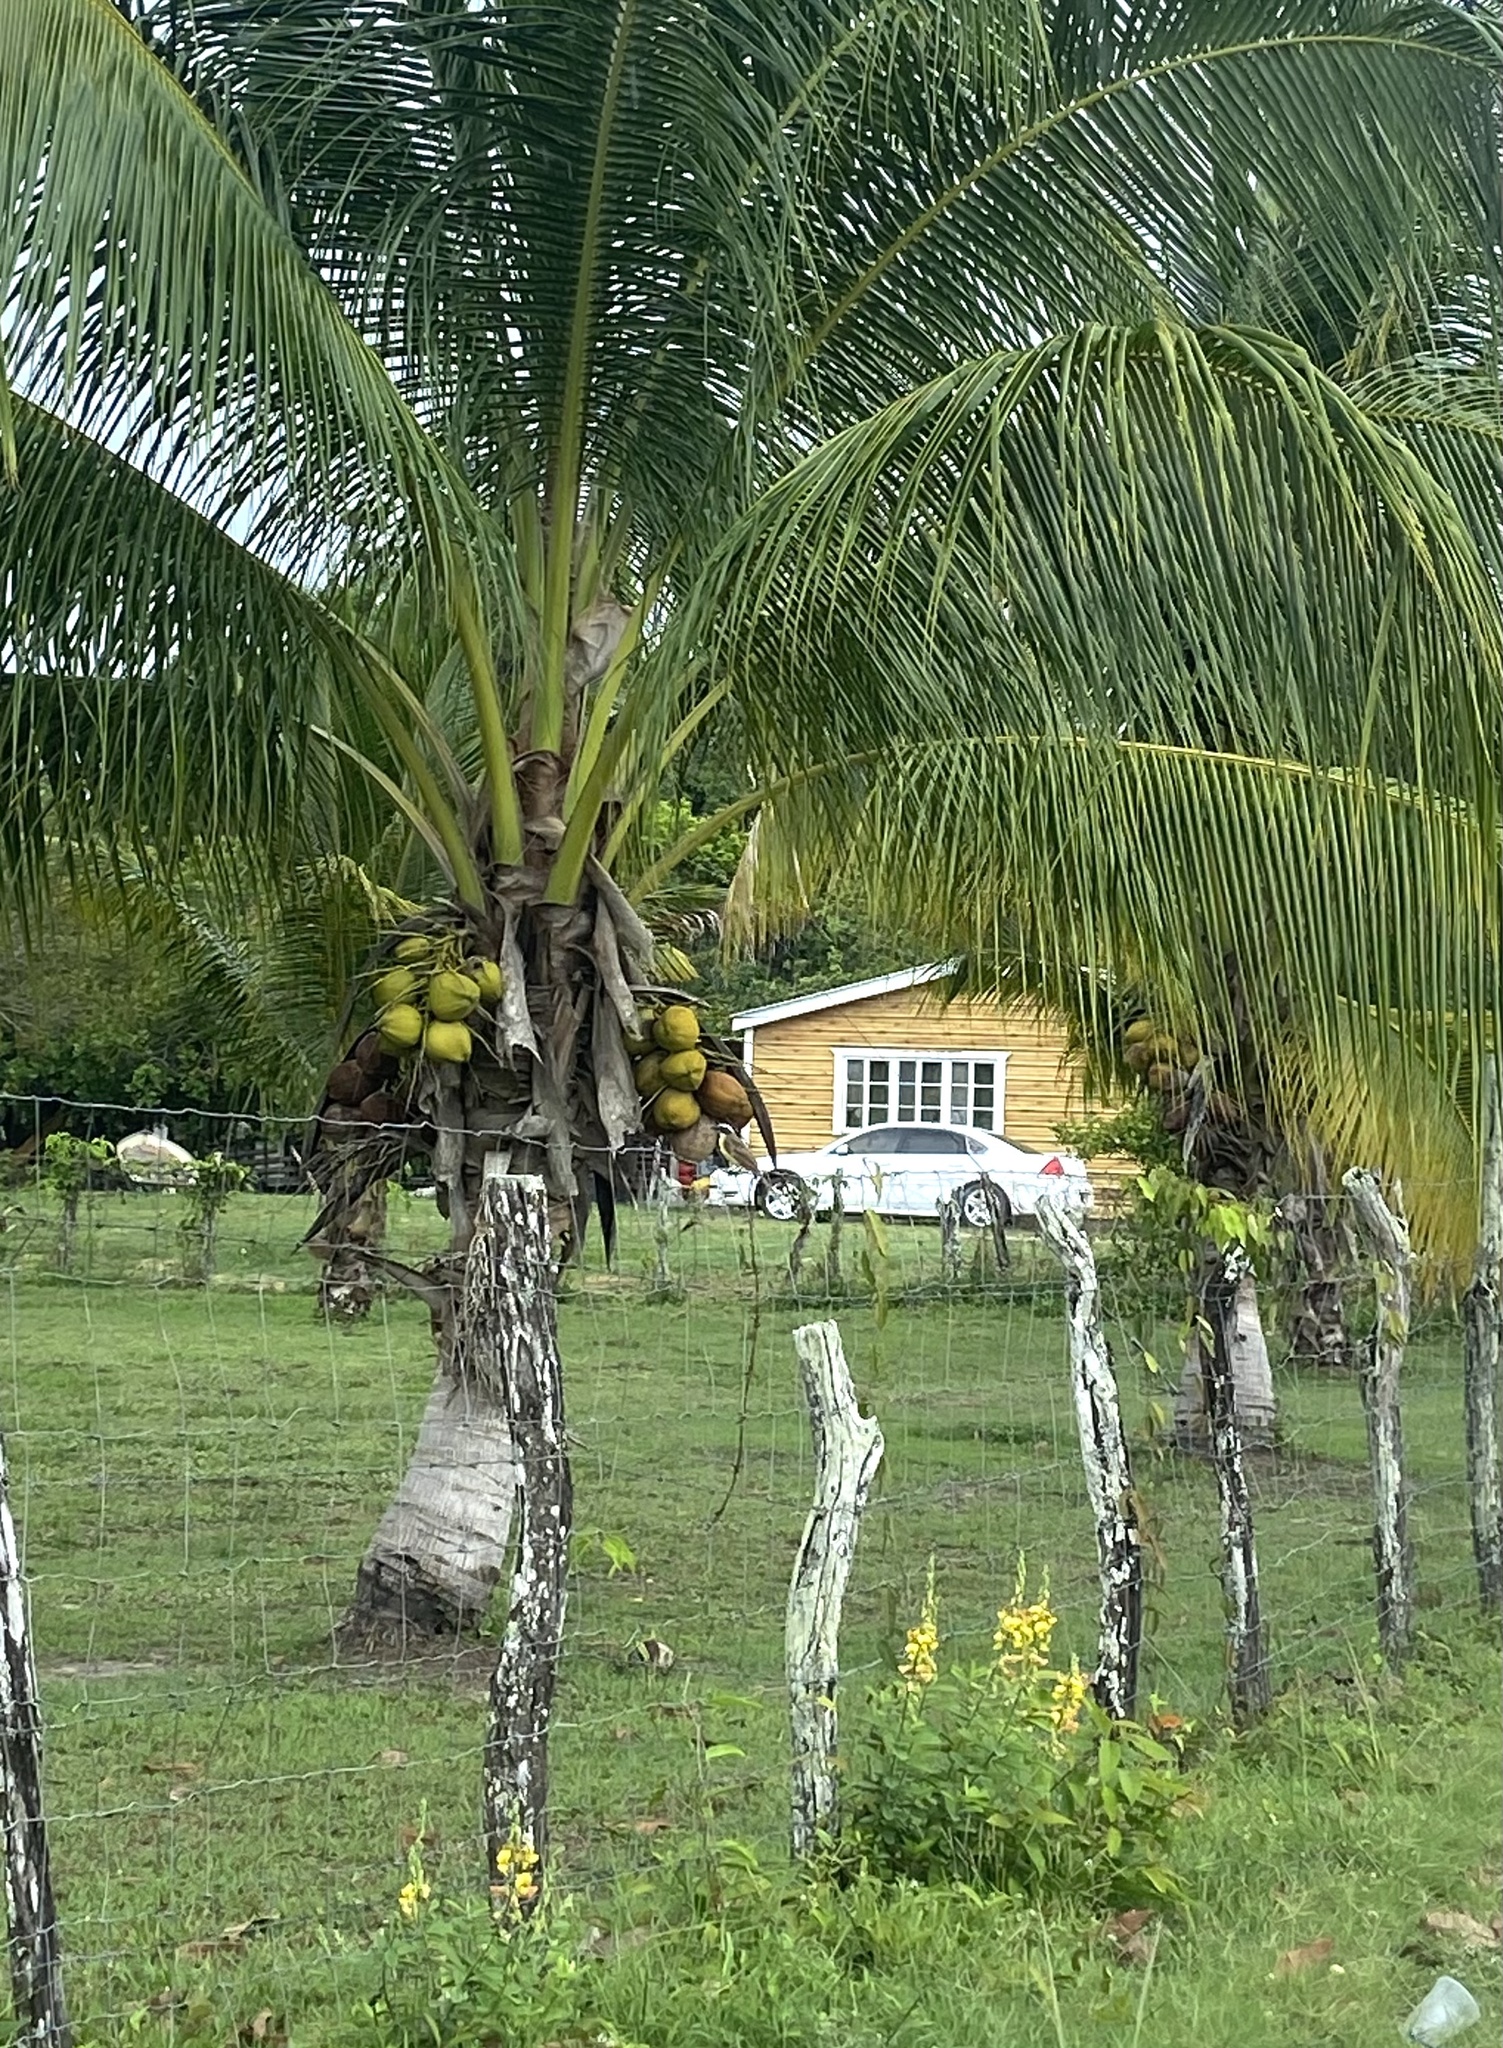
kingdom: Animalia
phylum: Chordata
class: Aves
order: Passeriformes
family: Tyrannidae
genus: Pitangus
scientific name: Pitangus sulphuratus
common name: Great kiskadee
